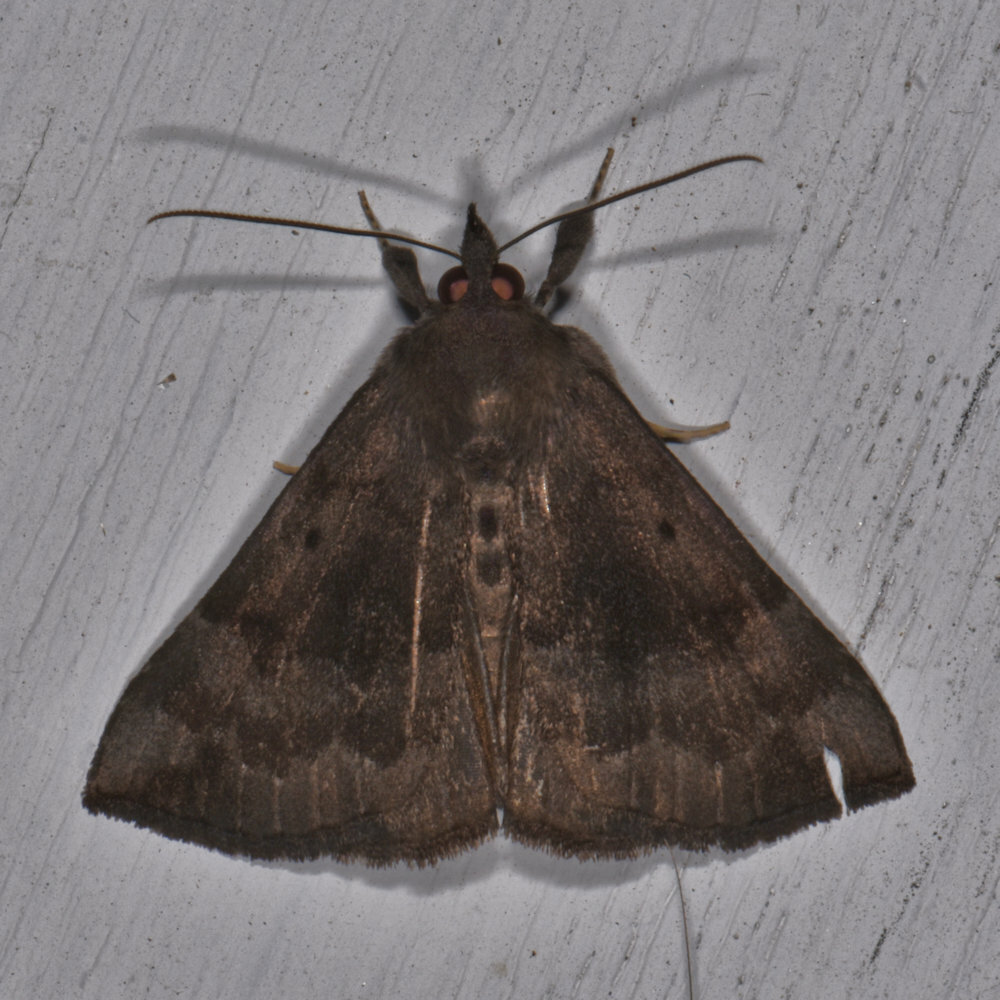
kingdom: Animalia
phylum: Arthropoda
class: Insecta
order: Lepidoptera
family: Erebidae
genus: Hypena
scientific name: Hypena madefactalis
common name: Gray-edged snout
